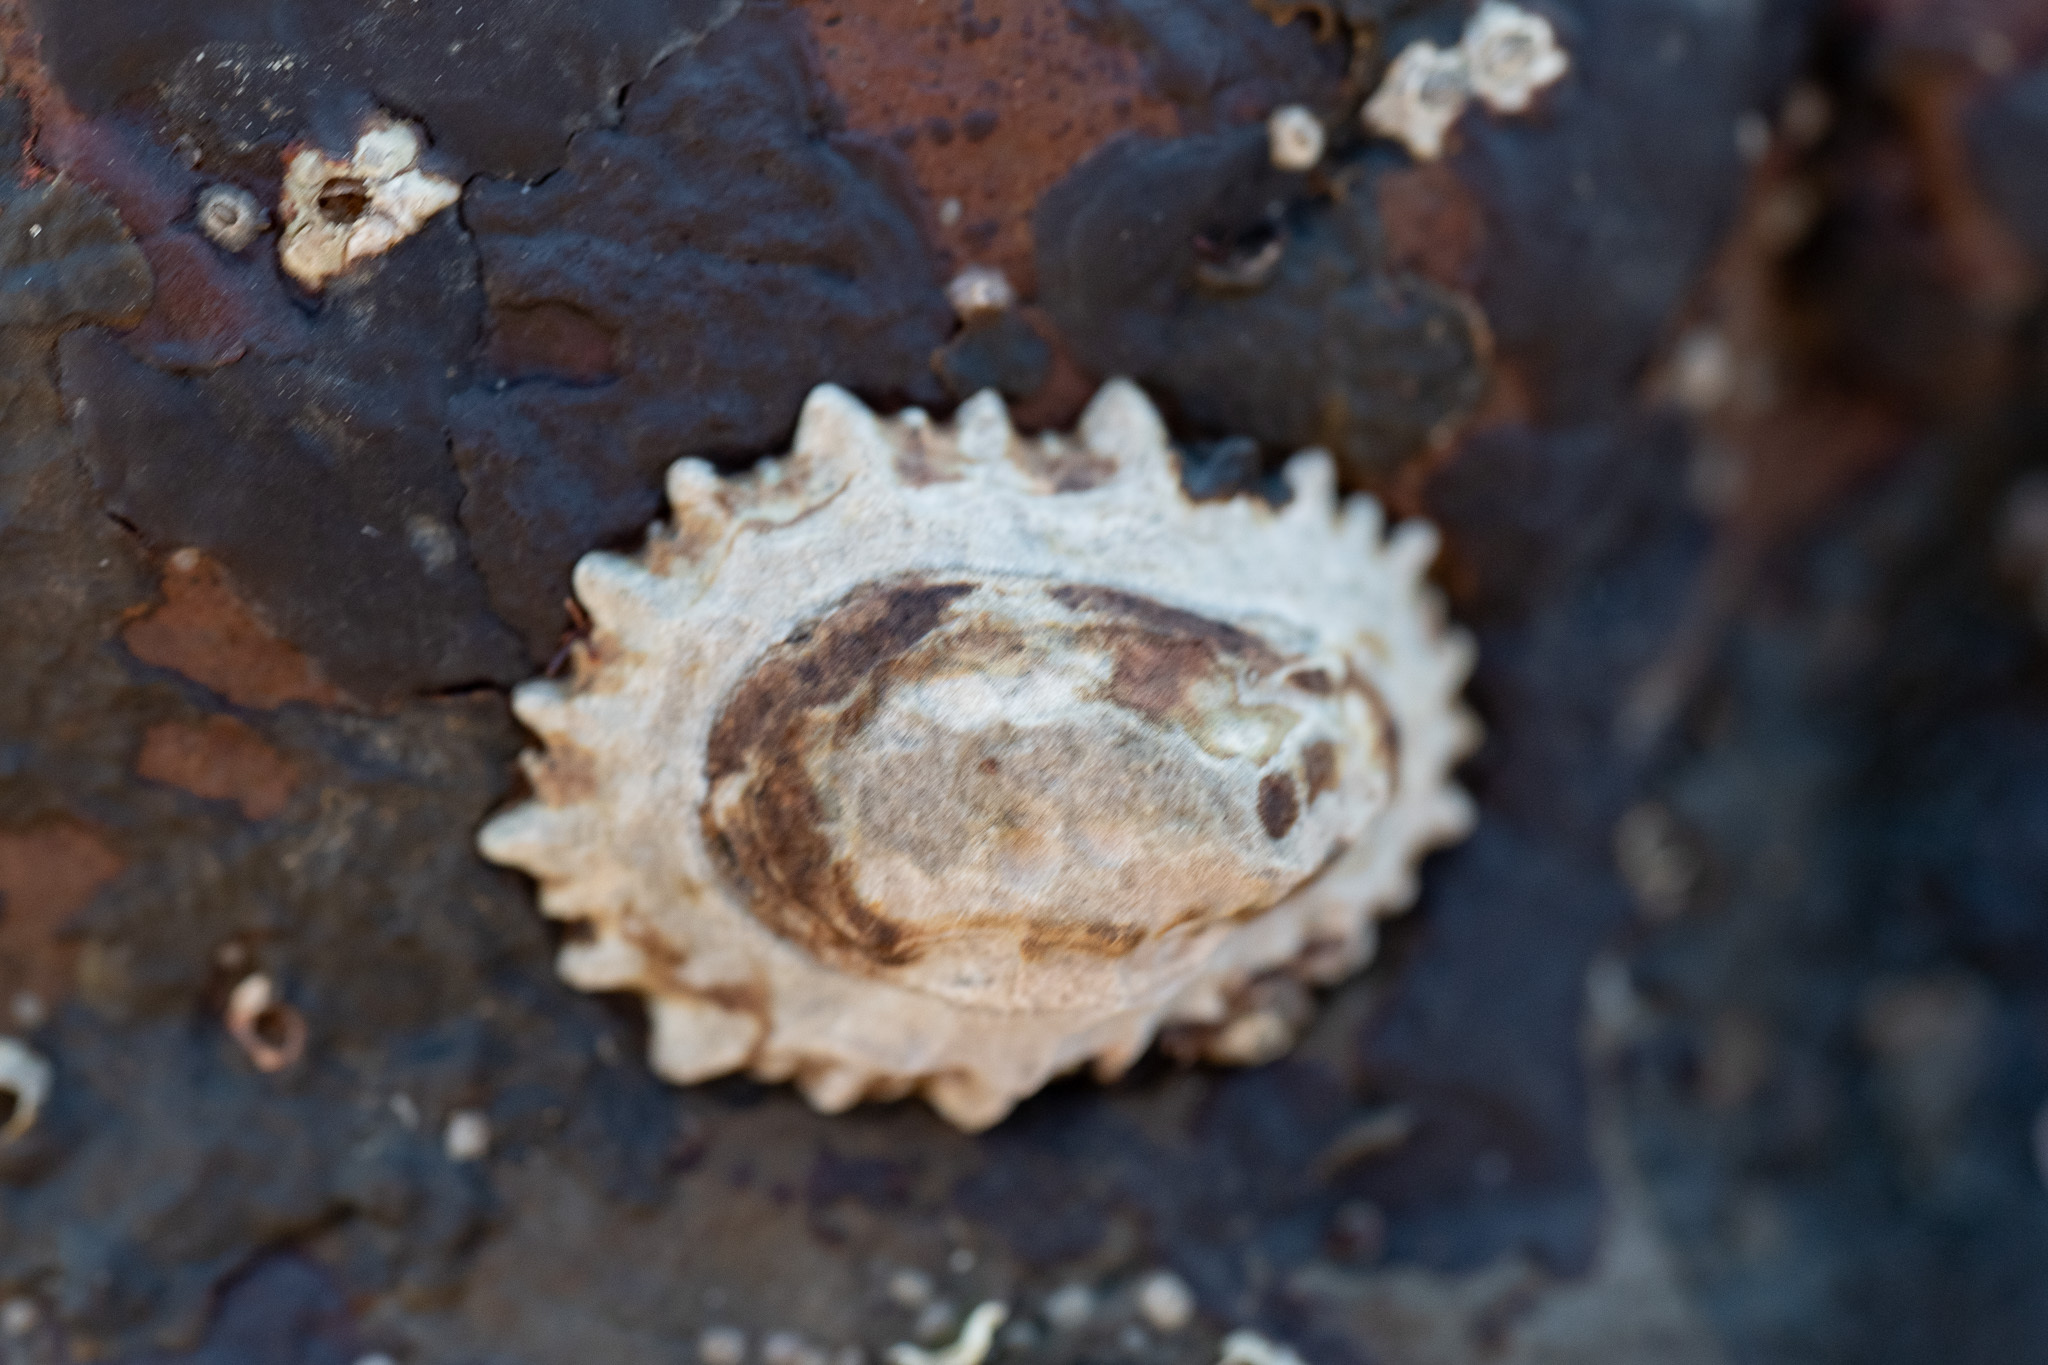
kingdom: Animalia
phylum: Mollusca
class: Gastropoda
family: Lottiidae
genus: Lottia
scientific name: Lottia scabra
